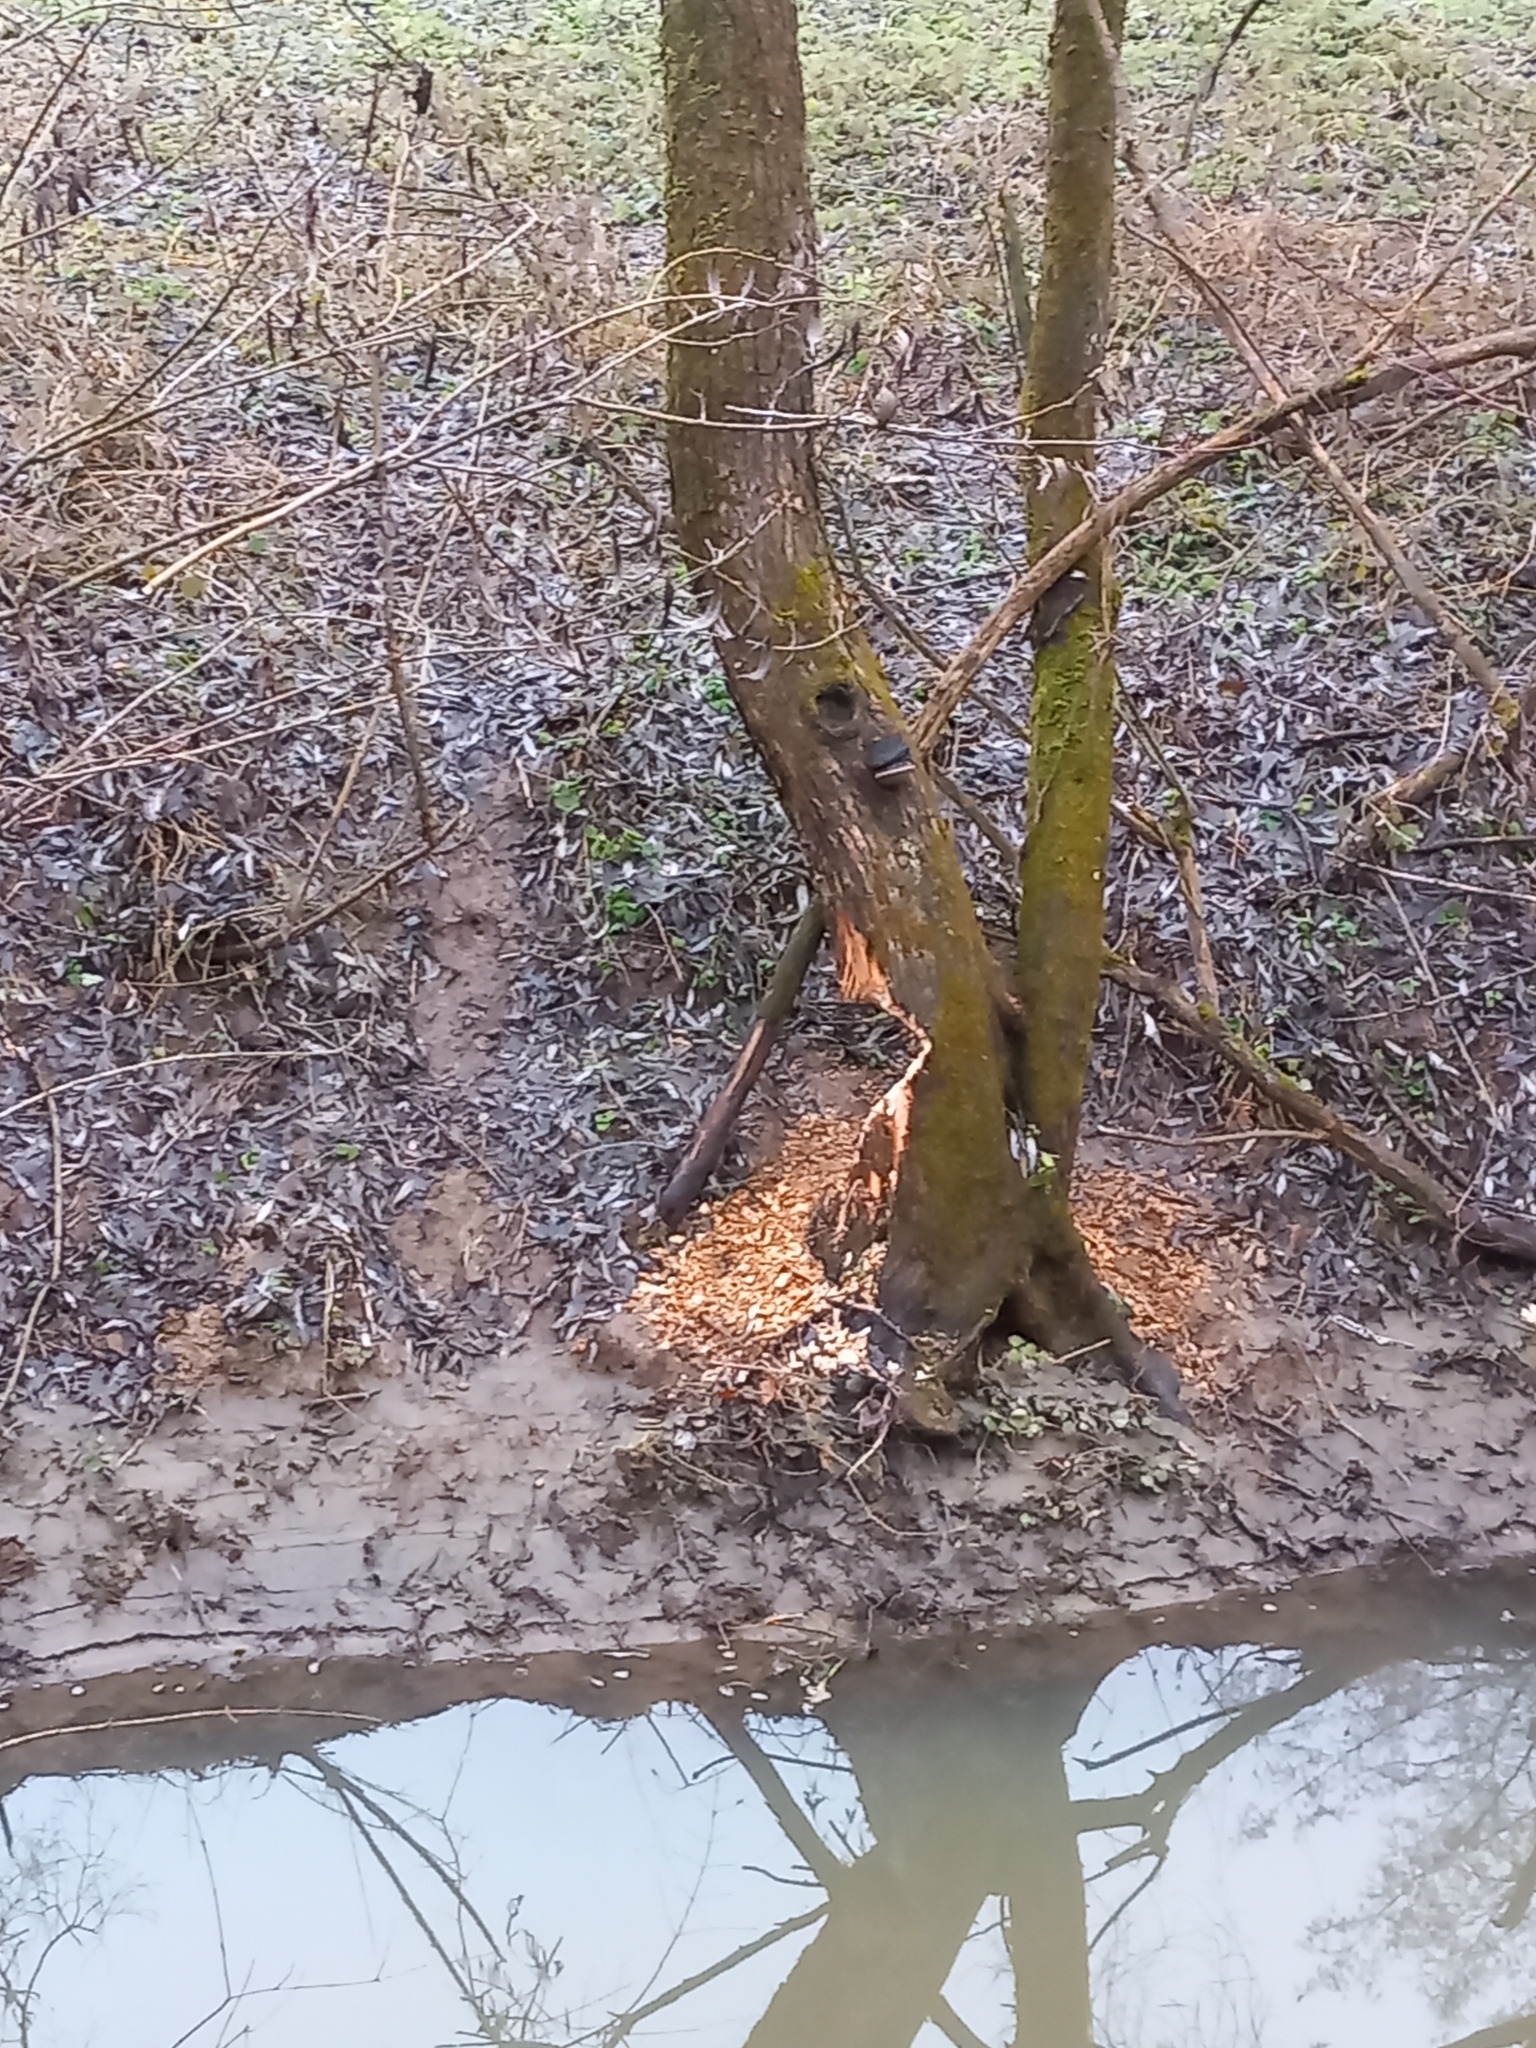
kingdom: Animalia
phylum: Chordata
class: Mammalia
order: Rodentia
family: Castoridae
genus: Castor
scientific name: Castor fiber
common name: Eurasian beaver
